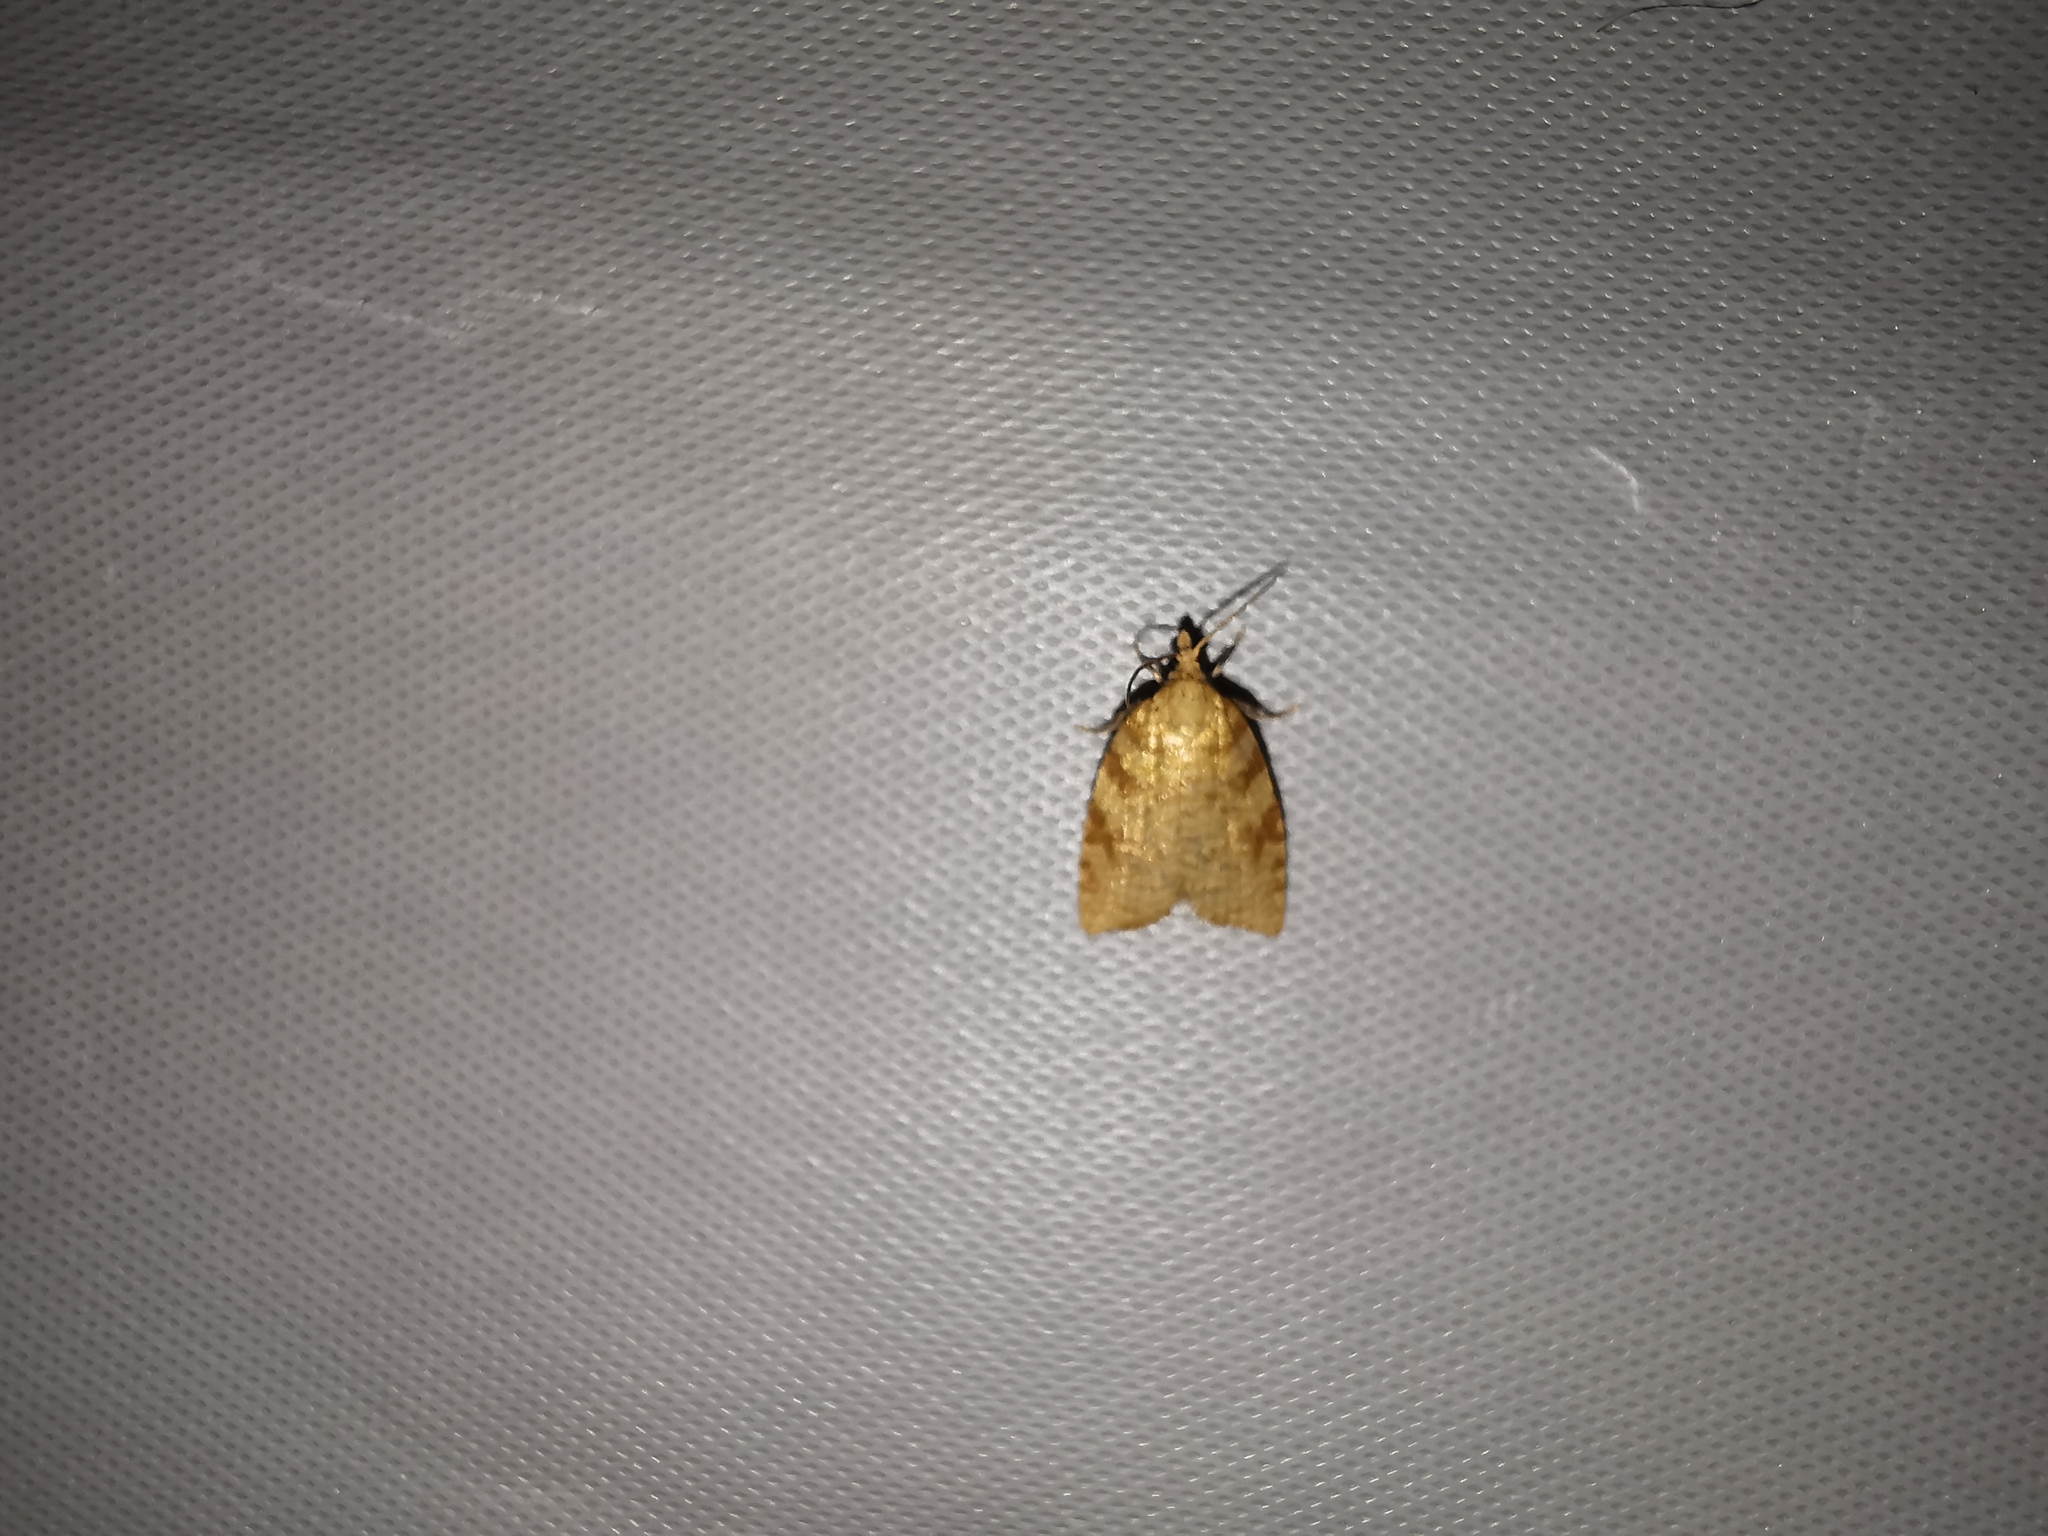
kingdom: Animalia
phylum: Arthropoda
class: Insecta
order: Lepidoptera
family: Tortricidae
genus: Aleimma
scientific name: Aleimma loeflingiana
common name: Yellow oak button
